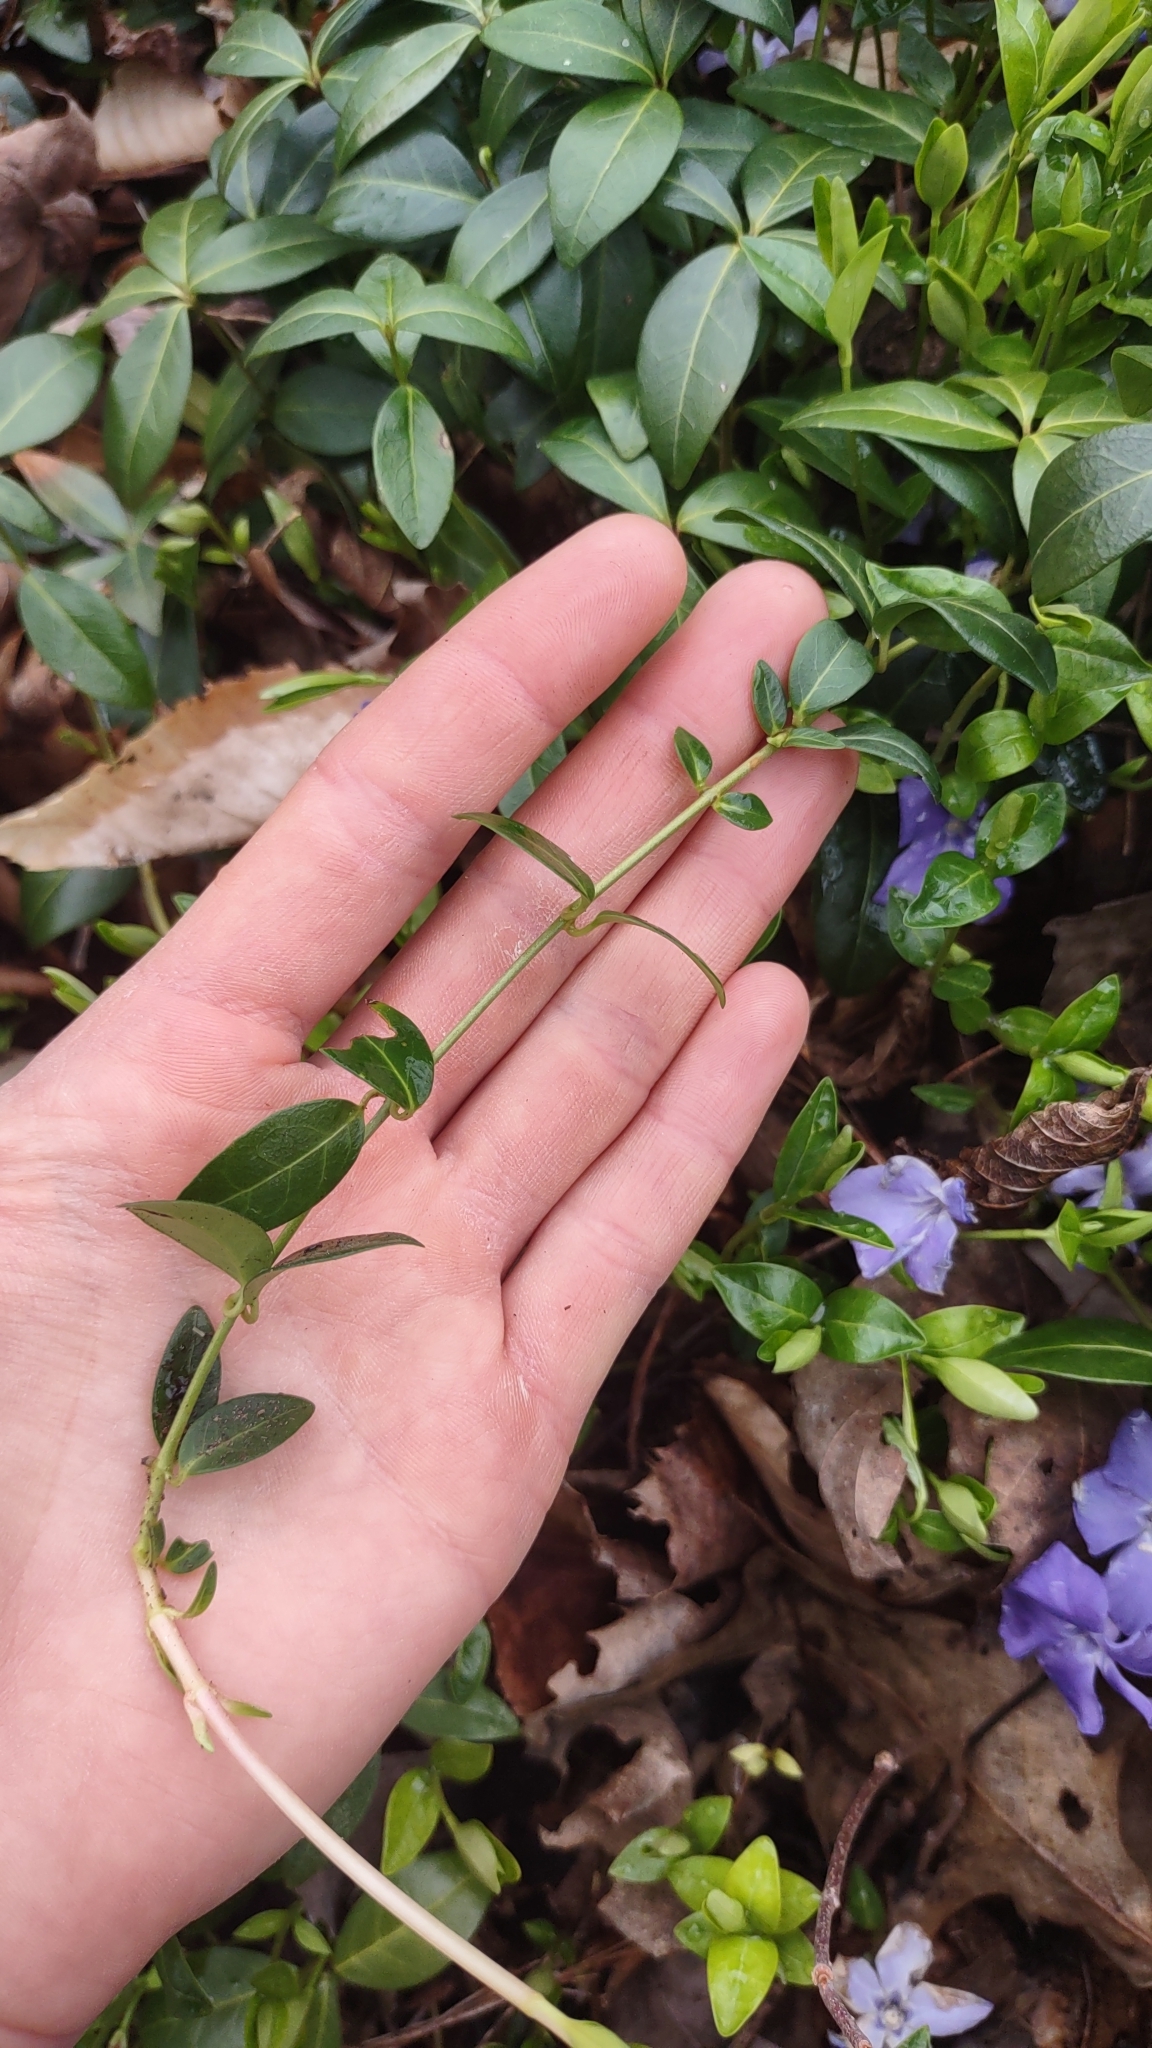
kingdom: Plantae
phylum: Tracheophyta
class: Magnoliopsida
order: Gentianales
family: Apocynaceae
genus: Vinca
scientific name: Vinca minor
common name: Lesser periwinkle
